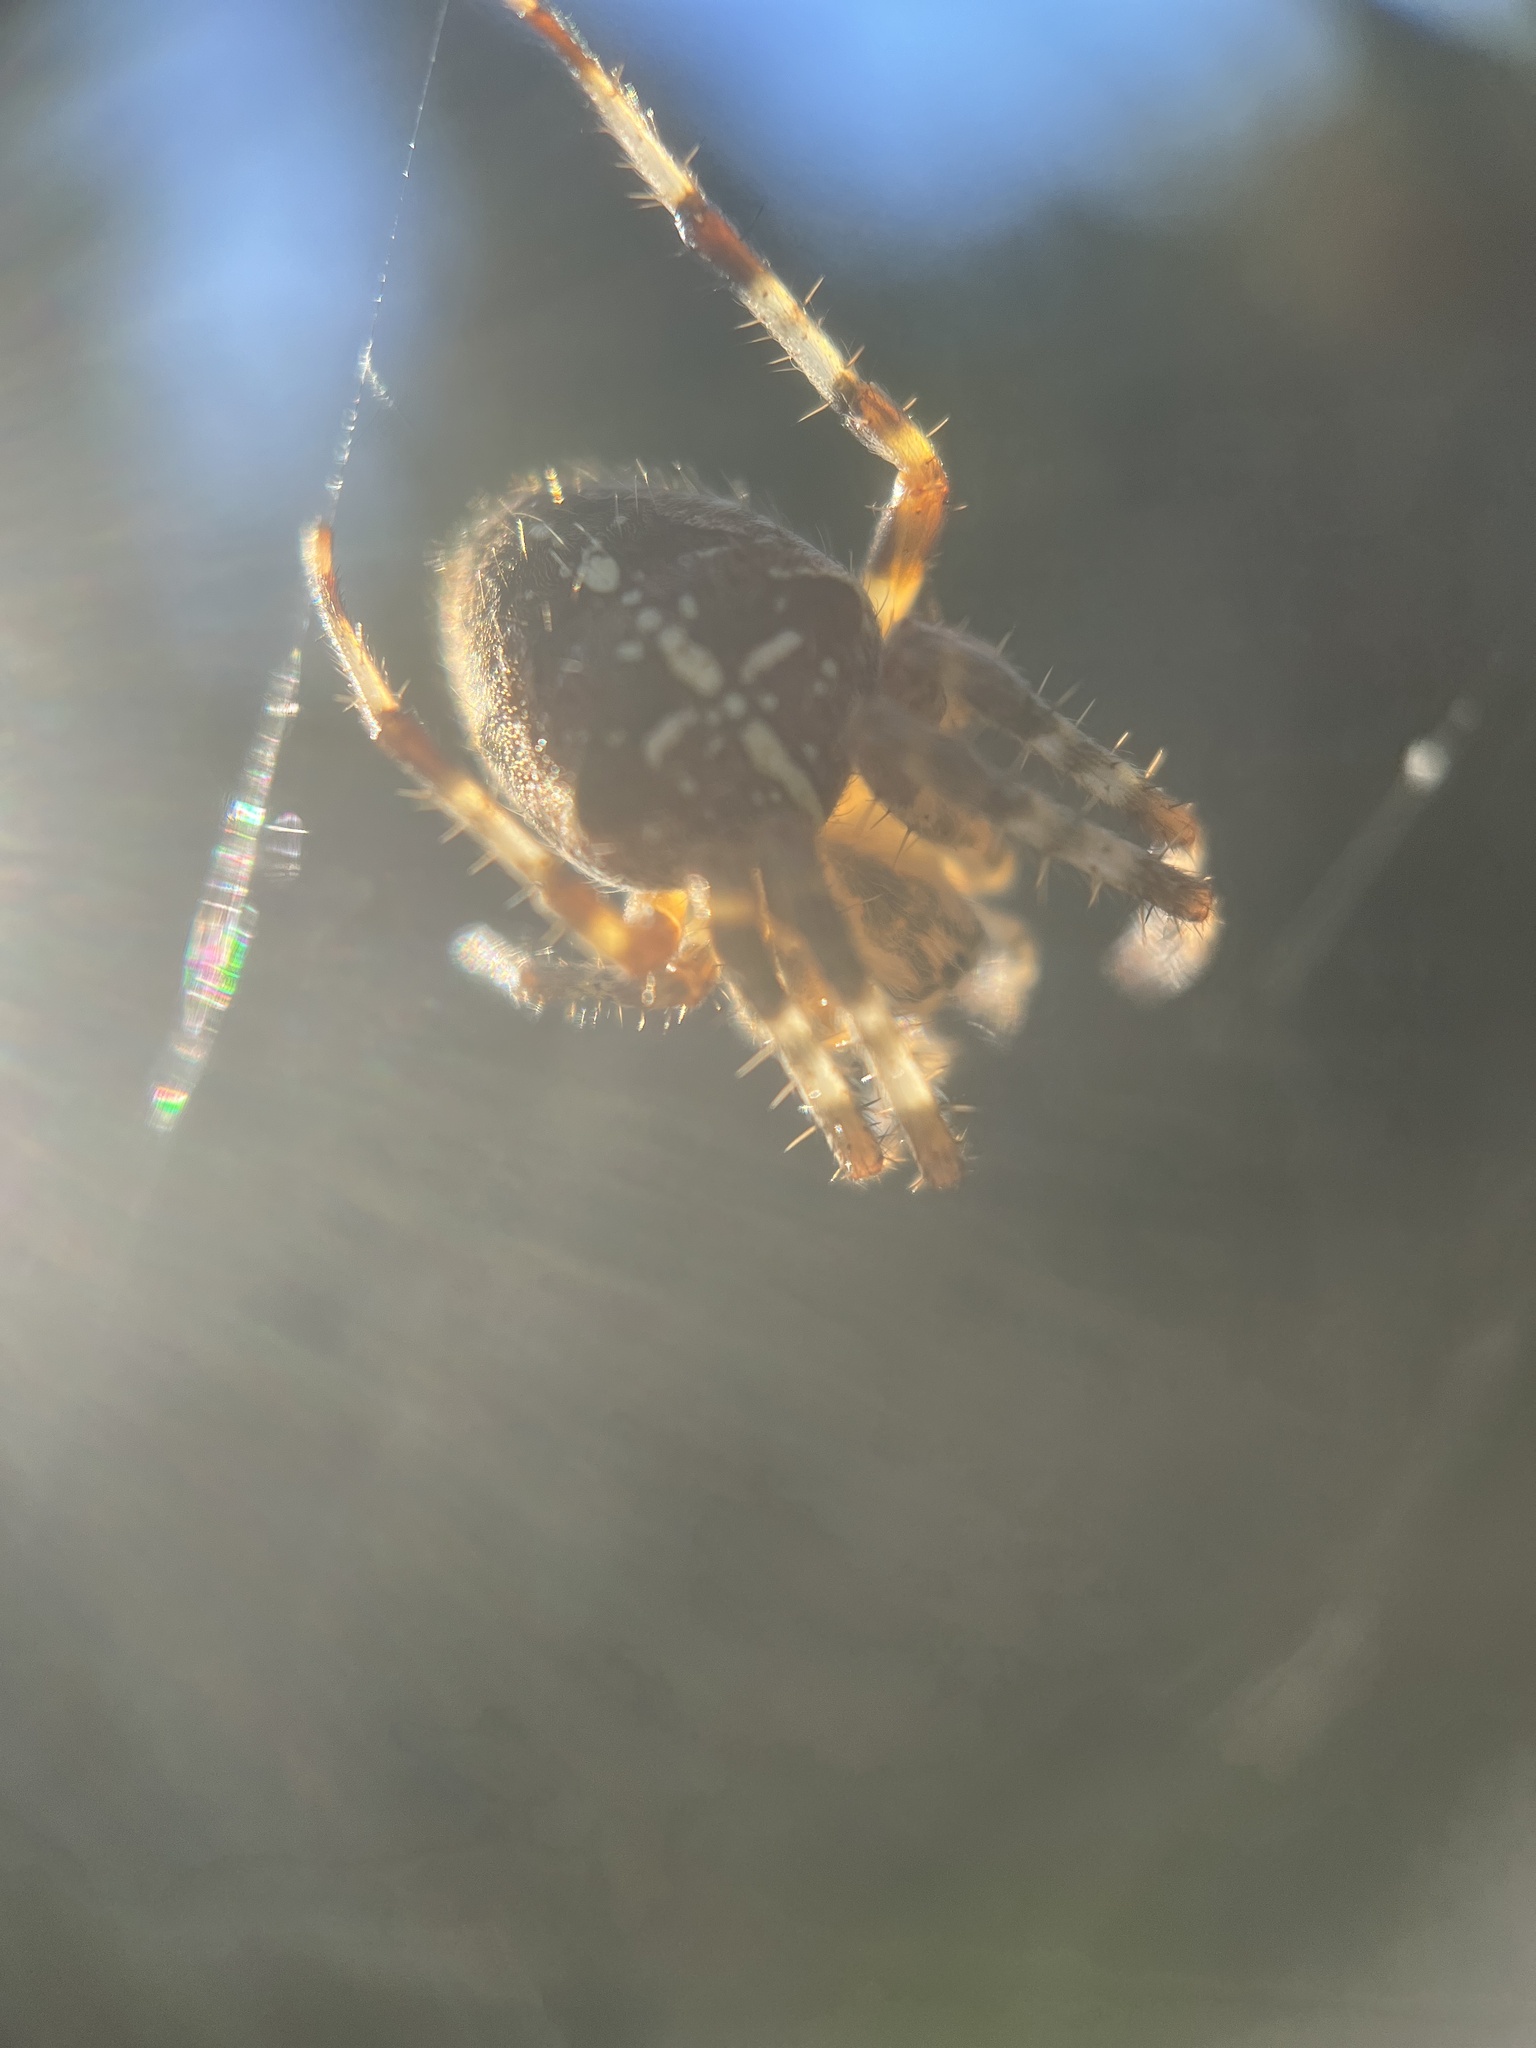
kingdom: Animalia
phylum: Arthropoda
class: Arachnida
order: Araneae
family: Araneidae
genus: Araneus
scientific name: Araneus diadematus
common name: Cross orbweaver
